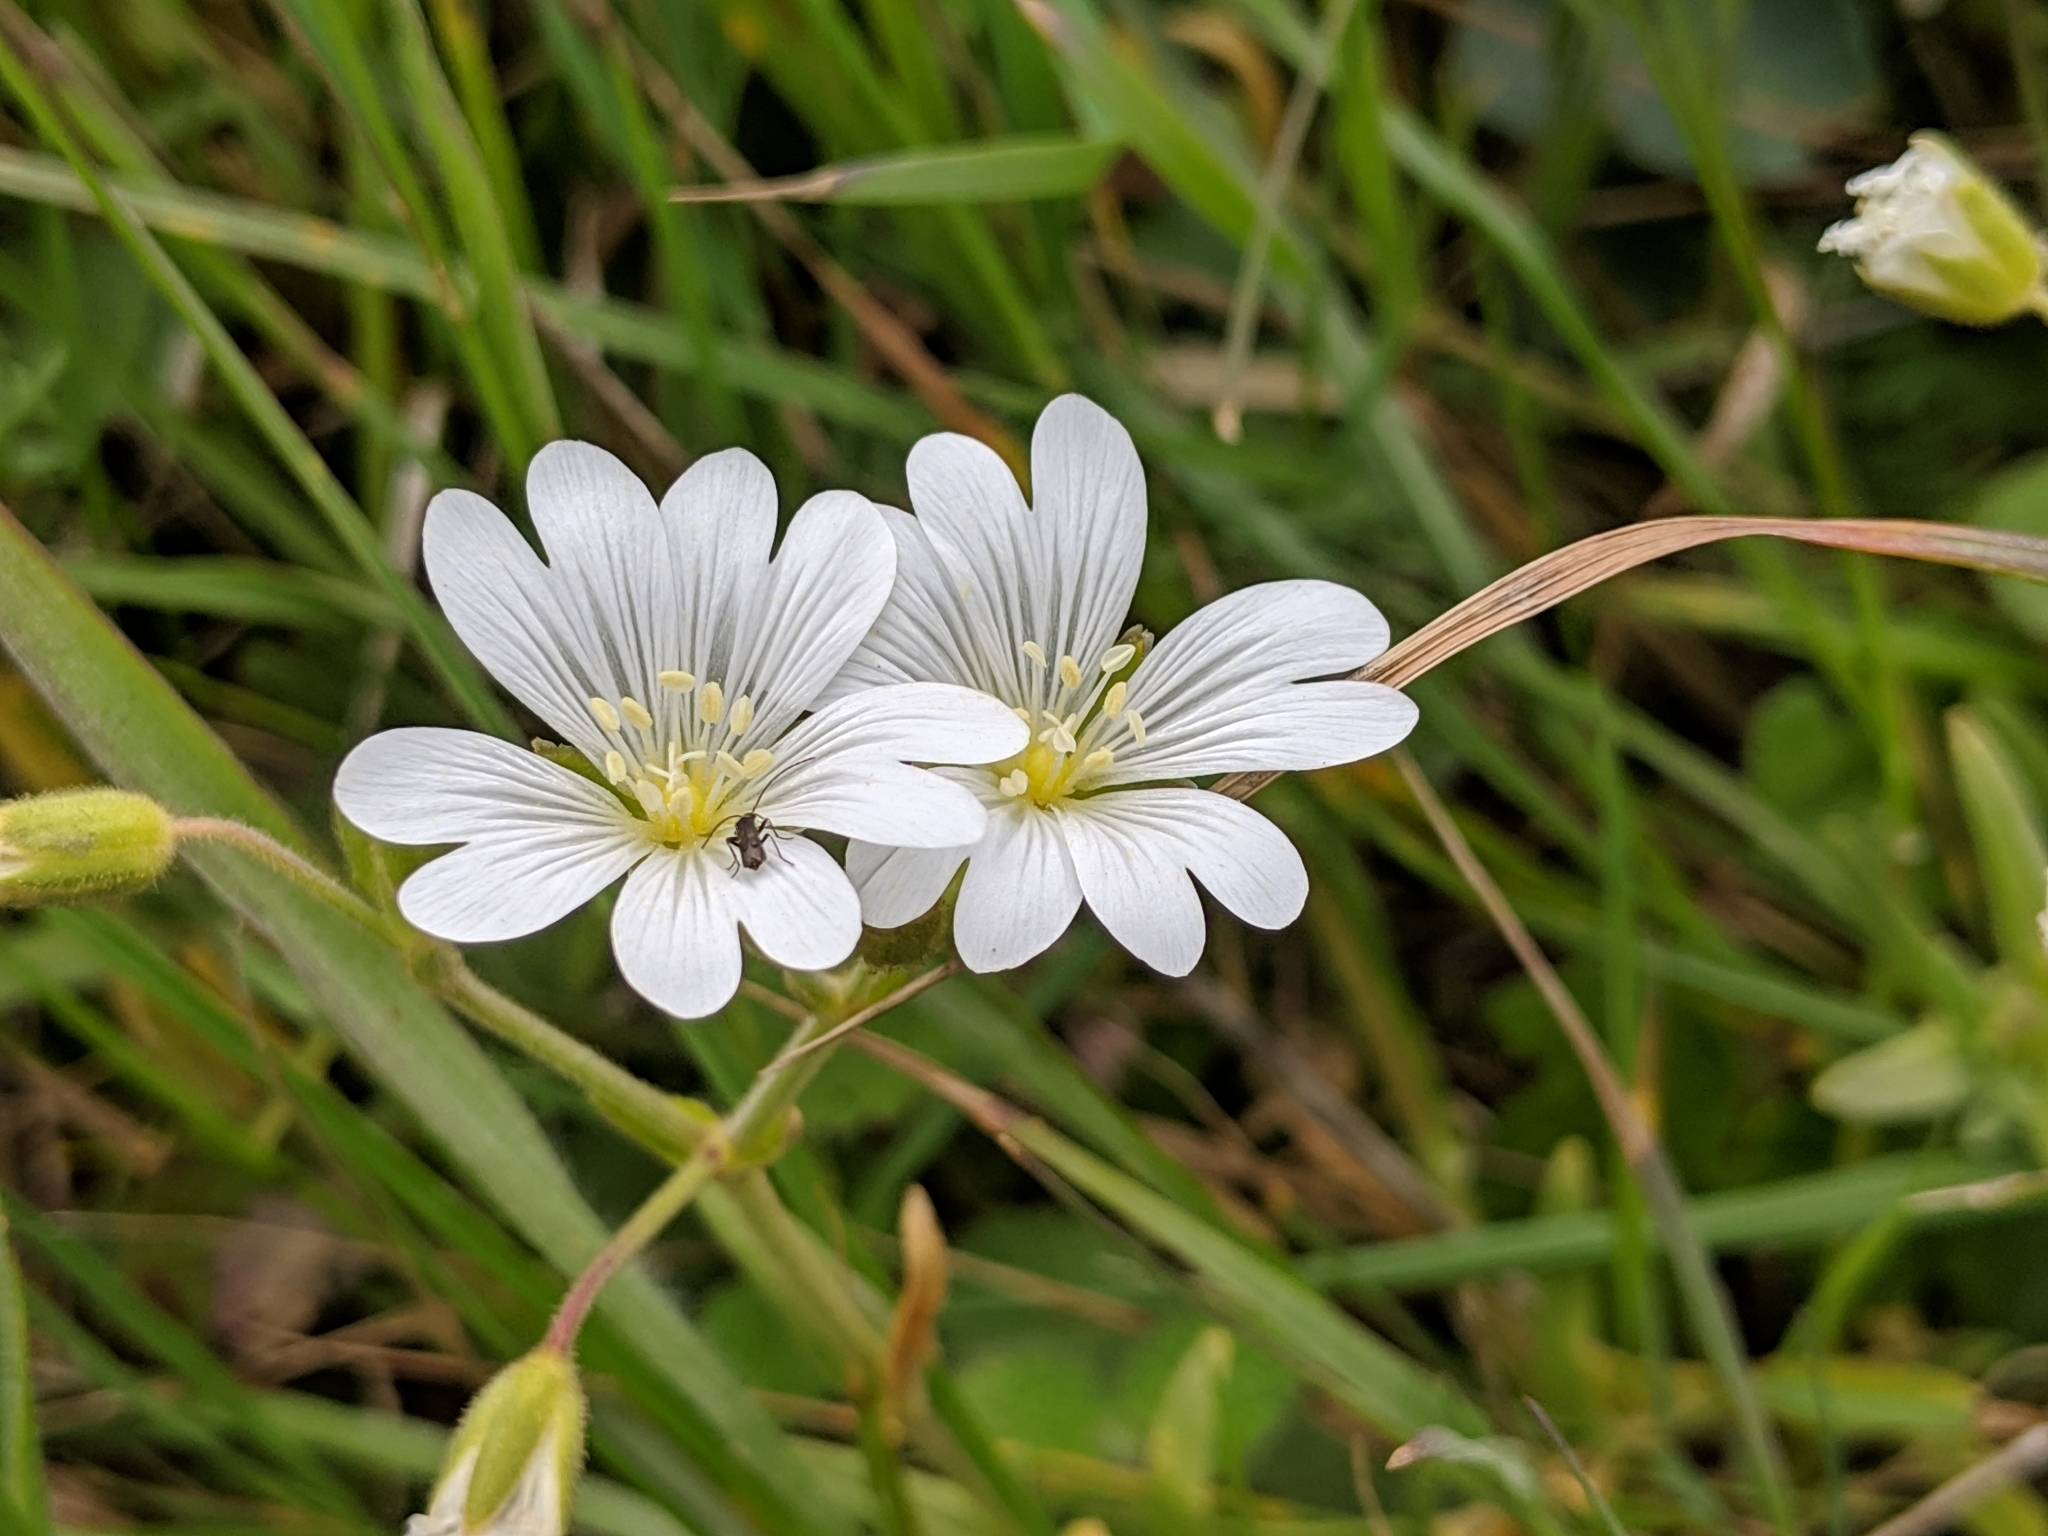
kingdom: Plantae
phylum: Tracheophyta
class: Magnoliopsida
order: Caryophyllales
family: Caryophyllaceae
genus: Cerastium
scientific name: Cerastium arvense
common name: Field mouse-ear
